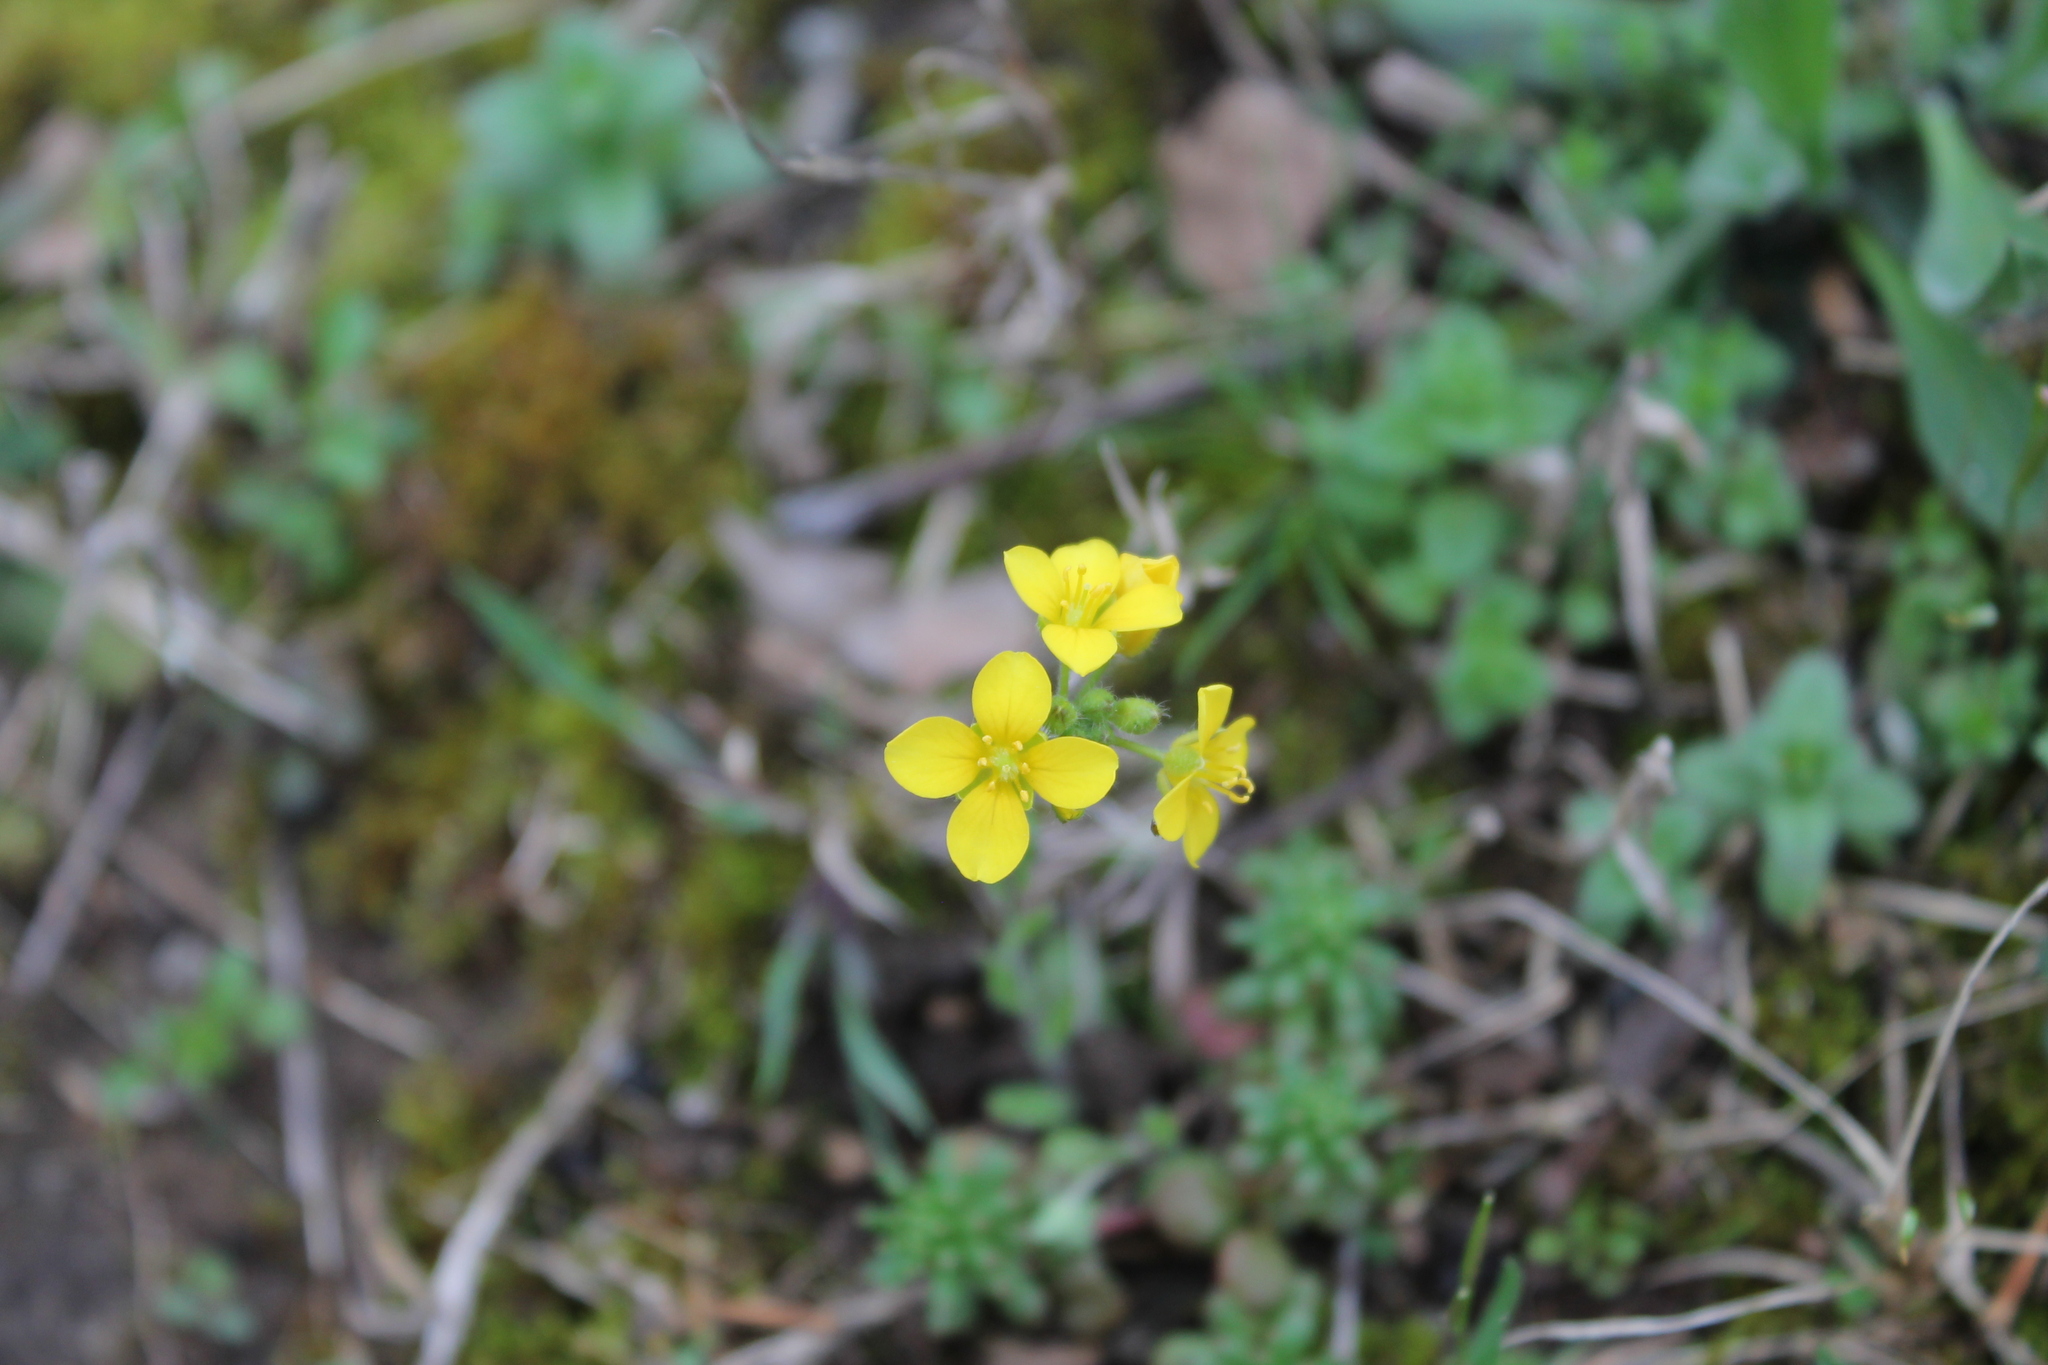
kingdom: Plantae
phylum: Tracheophyta
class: Magnoliopsida
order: Brassicales
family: Brassicaceae
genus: Paysonia
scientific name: Paysonia lescurii
